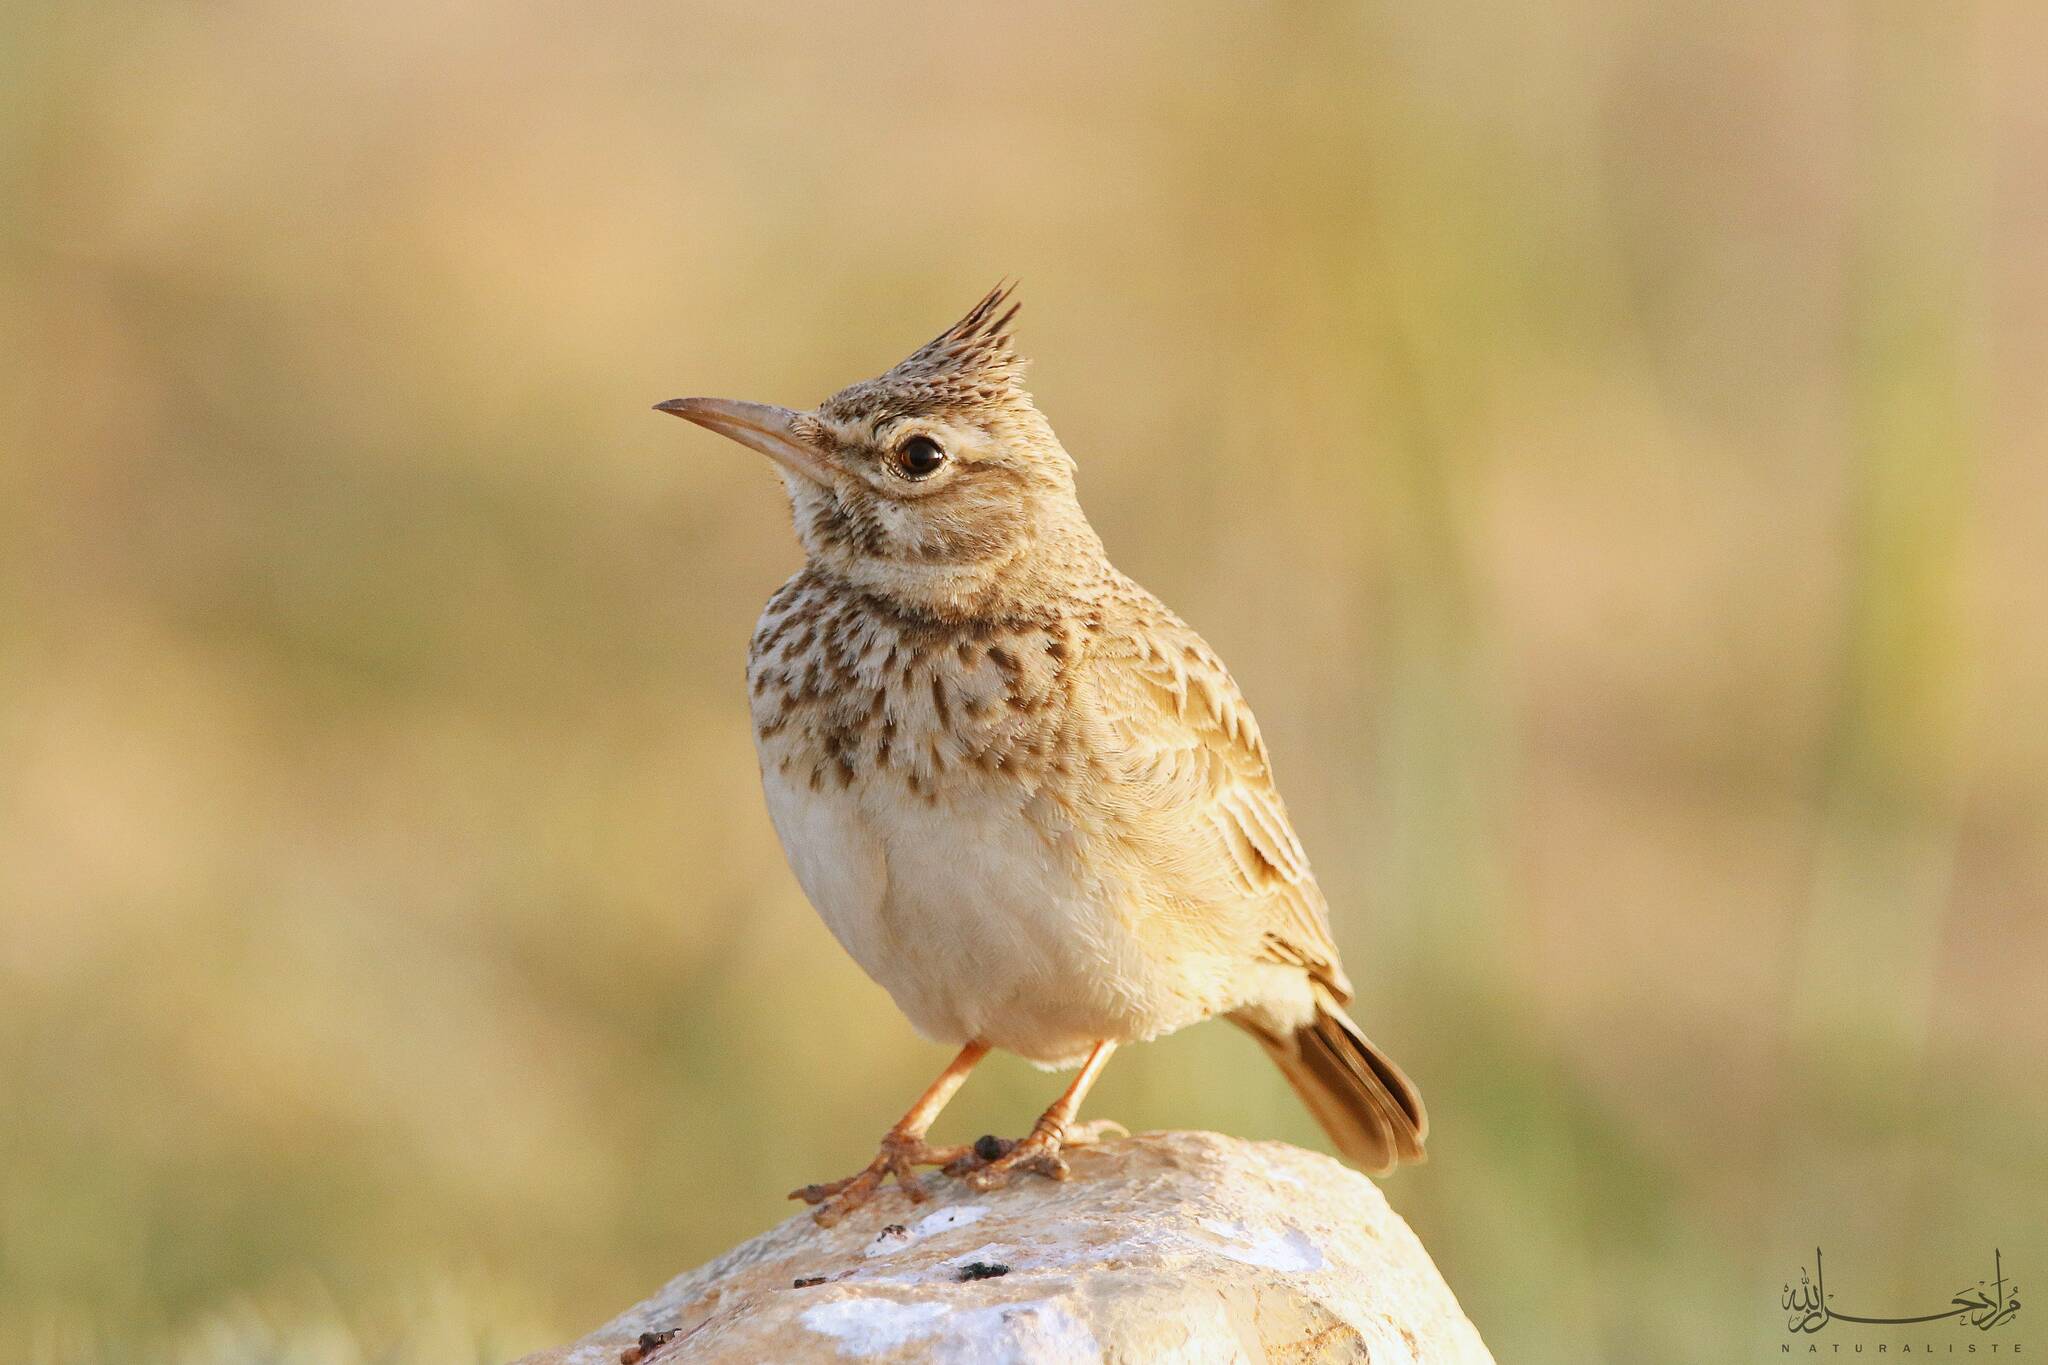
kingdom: Animalia
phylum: Chordata
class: Aves
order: Passeriformes
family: Alaudidae
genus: Galerida
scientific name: Galerida cristata
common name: Crested lark
